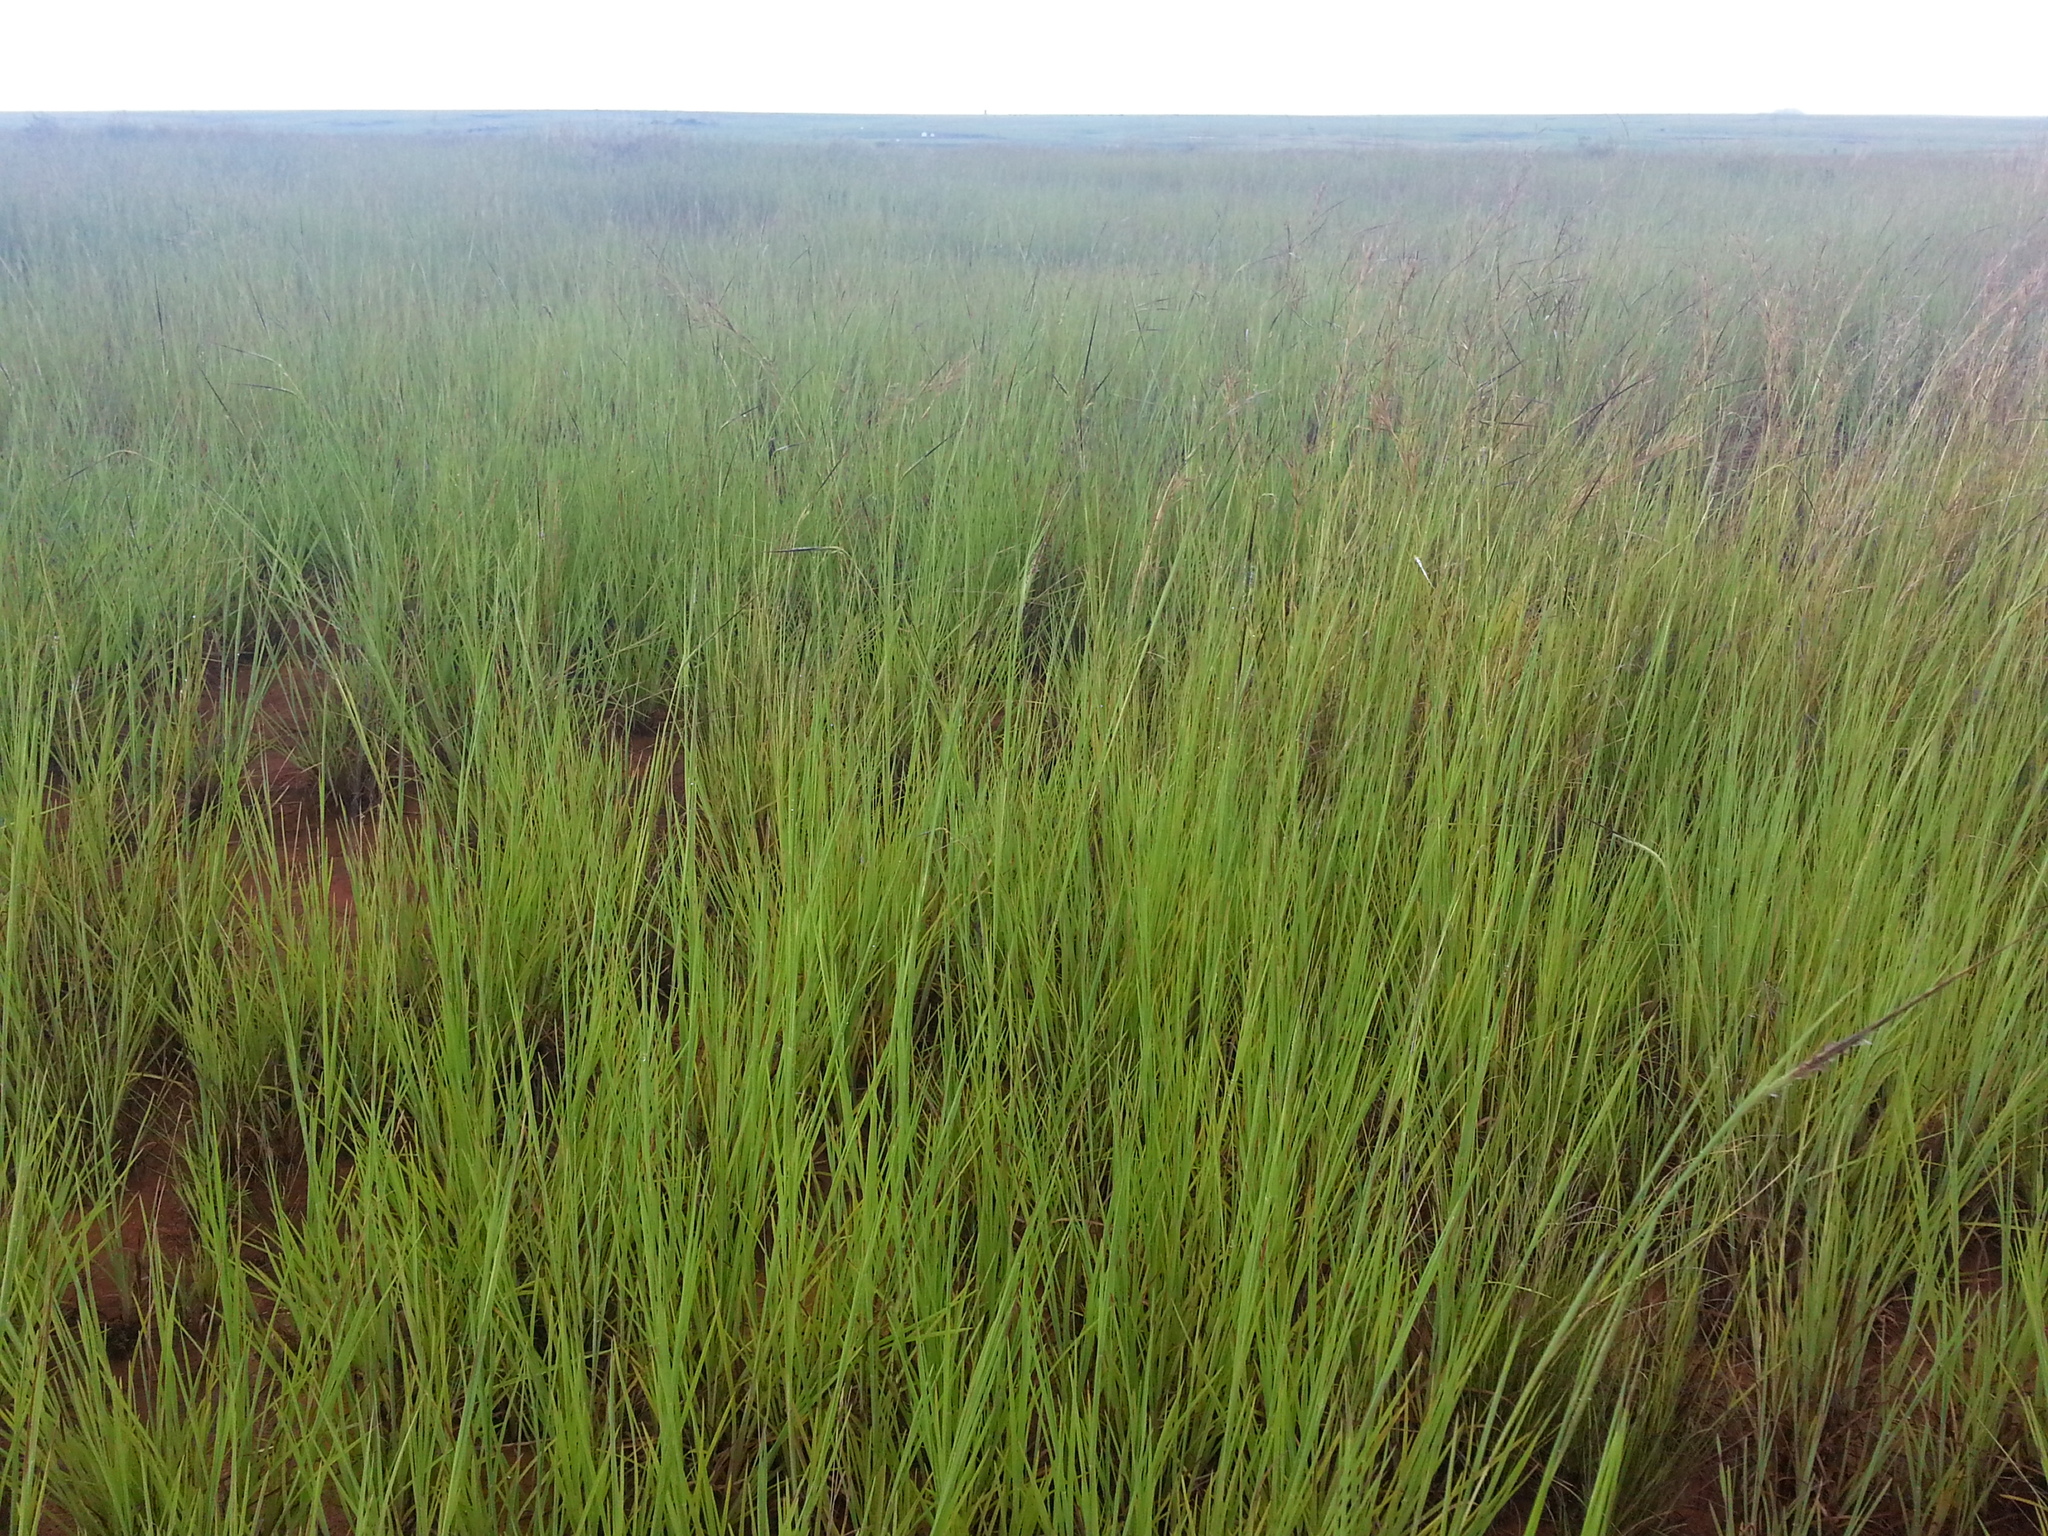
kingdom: Plantae
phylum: Tracheophyta
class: Liliopsida
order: Poales
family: Poaceae
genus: Heteropogon
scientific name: Heteropogon contortus
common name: Tanglehead
